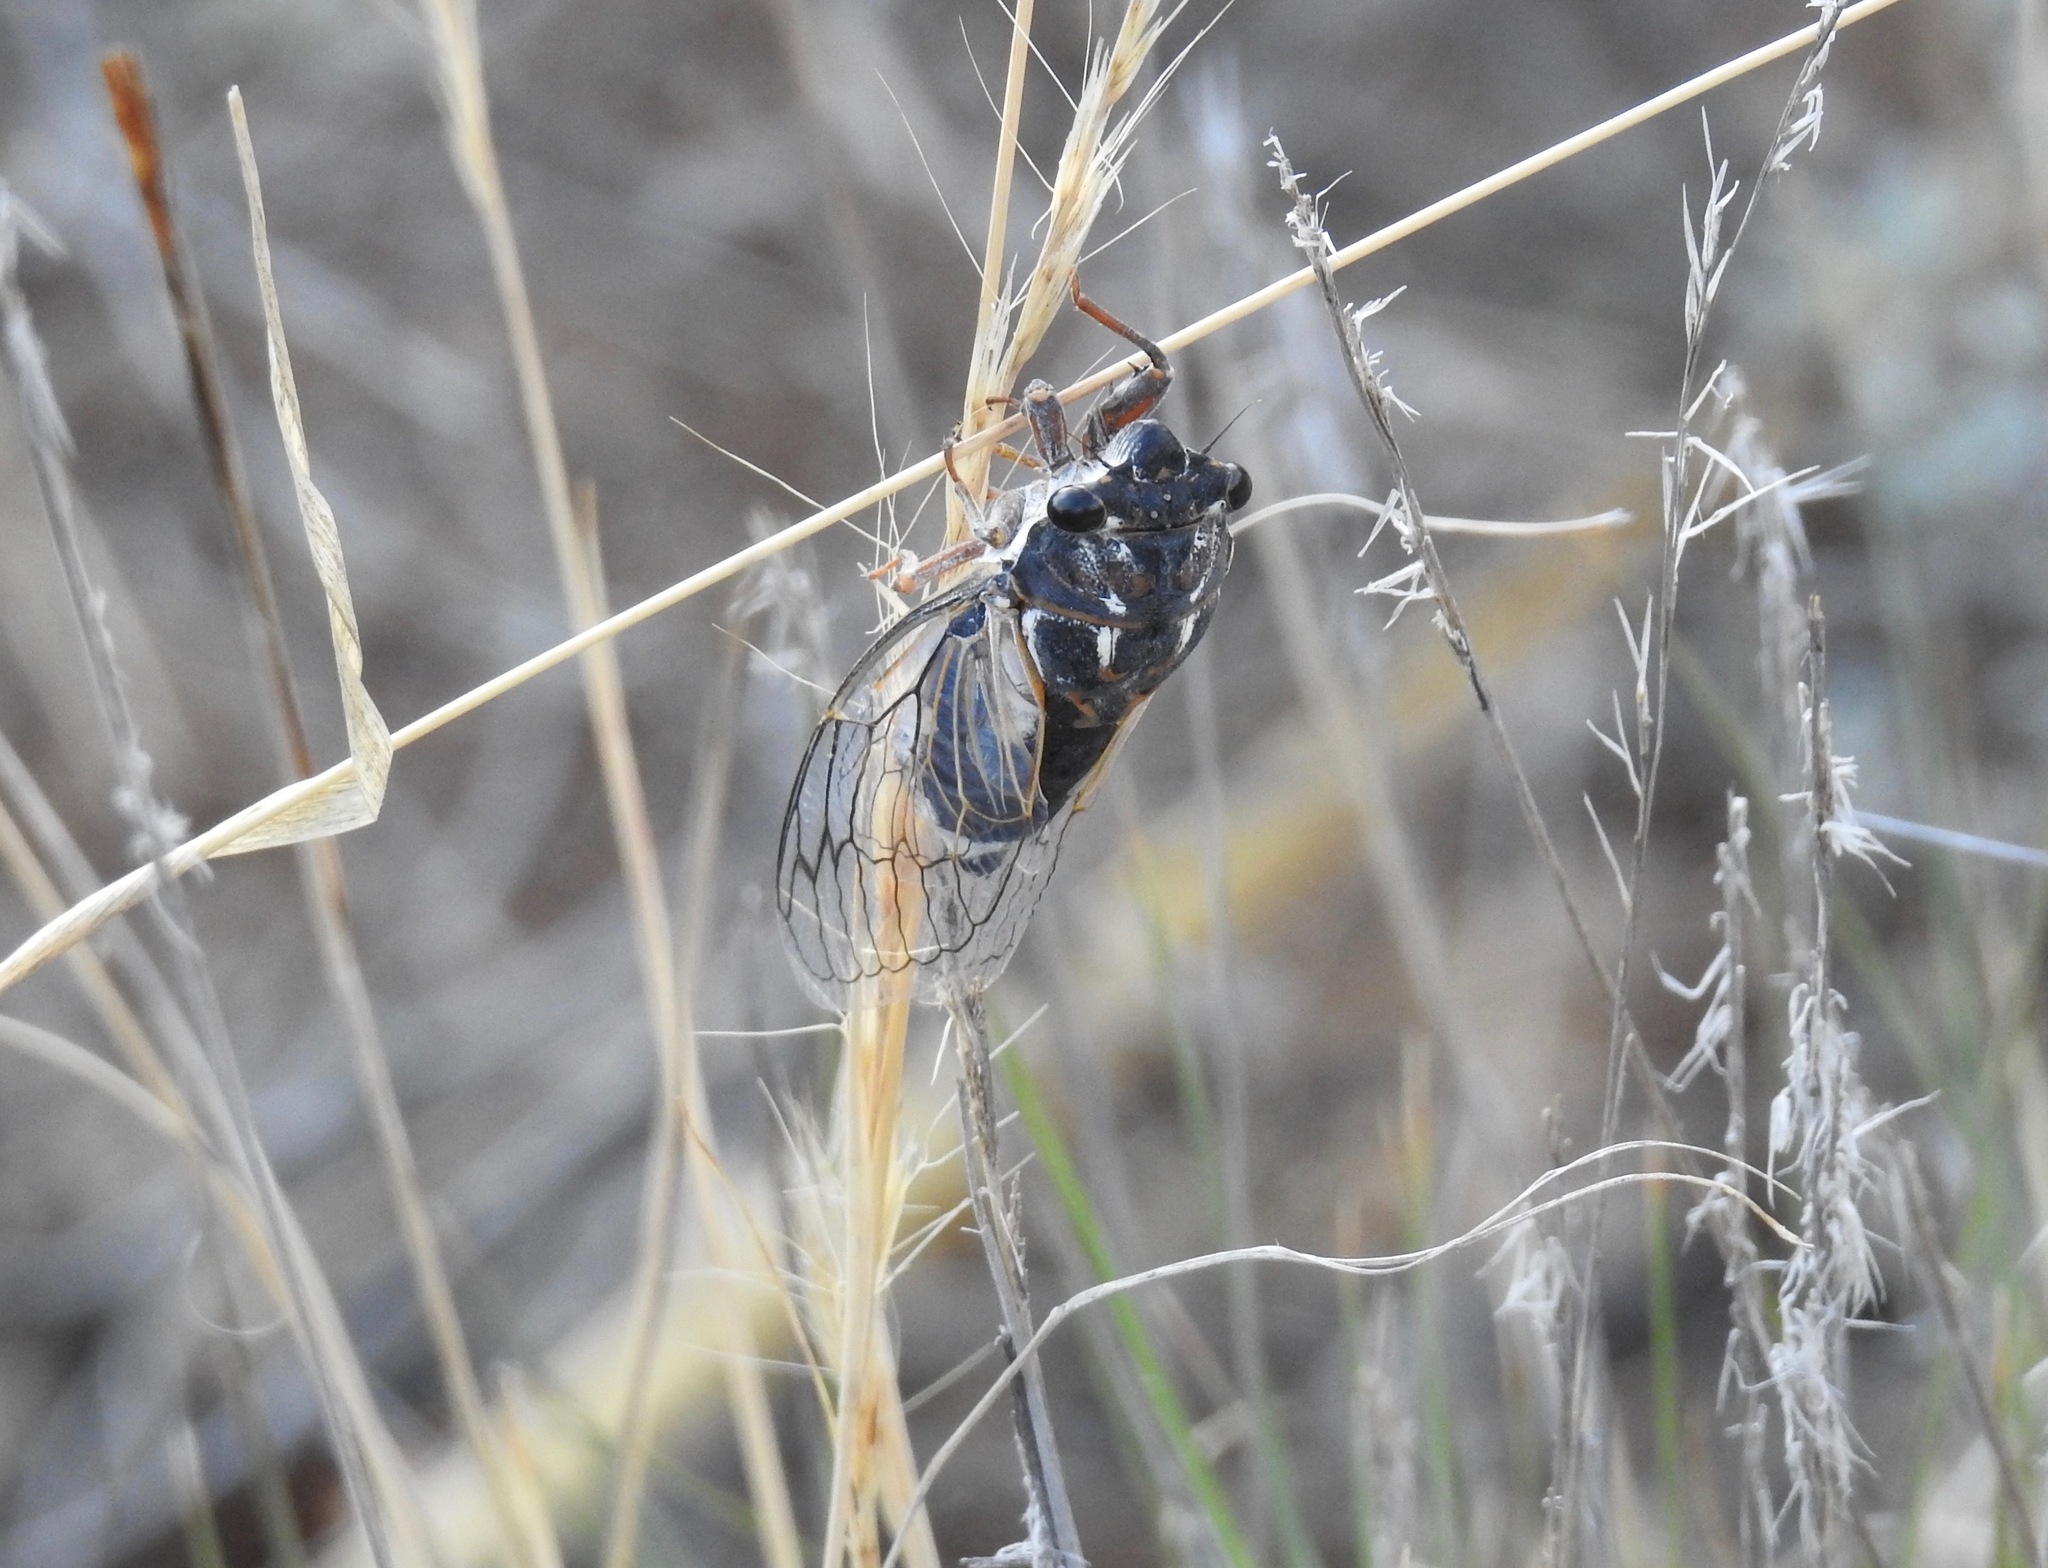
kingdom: Animalia
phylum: Arthropoda
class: Insecta
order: Hemiptera
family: Cicadidae
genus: Hadoa
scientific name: Hadoa townsendii
